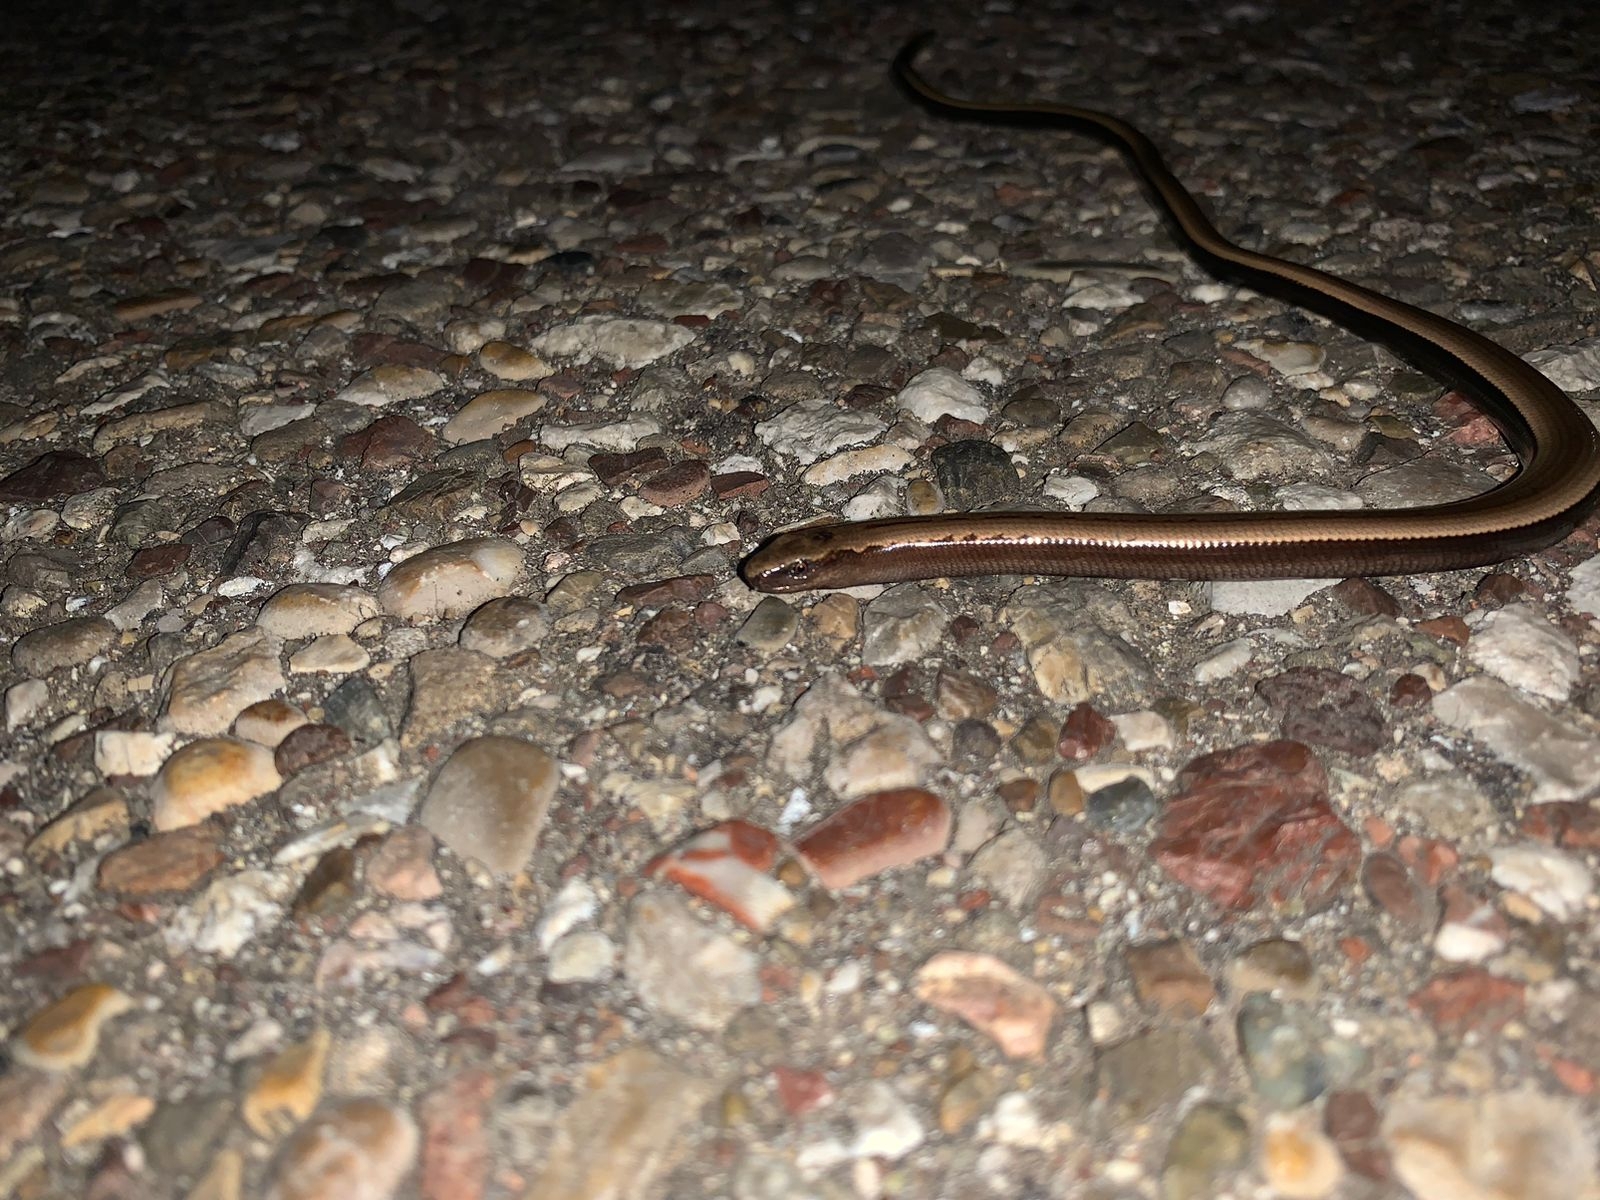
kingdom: Animalia
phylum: Chordata
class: Squamata
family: Anguidae
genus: Anguis
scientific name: Anguis cephallonica
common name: Peloponnese slow worm
